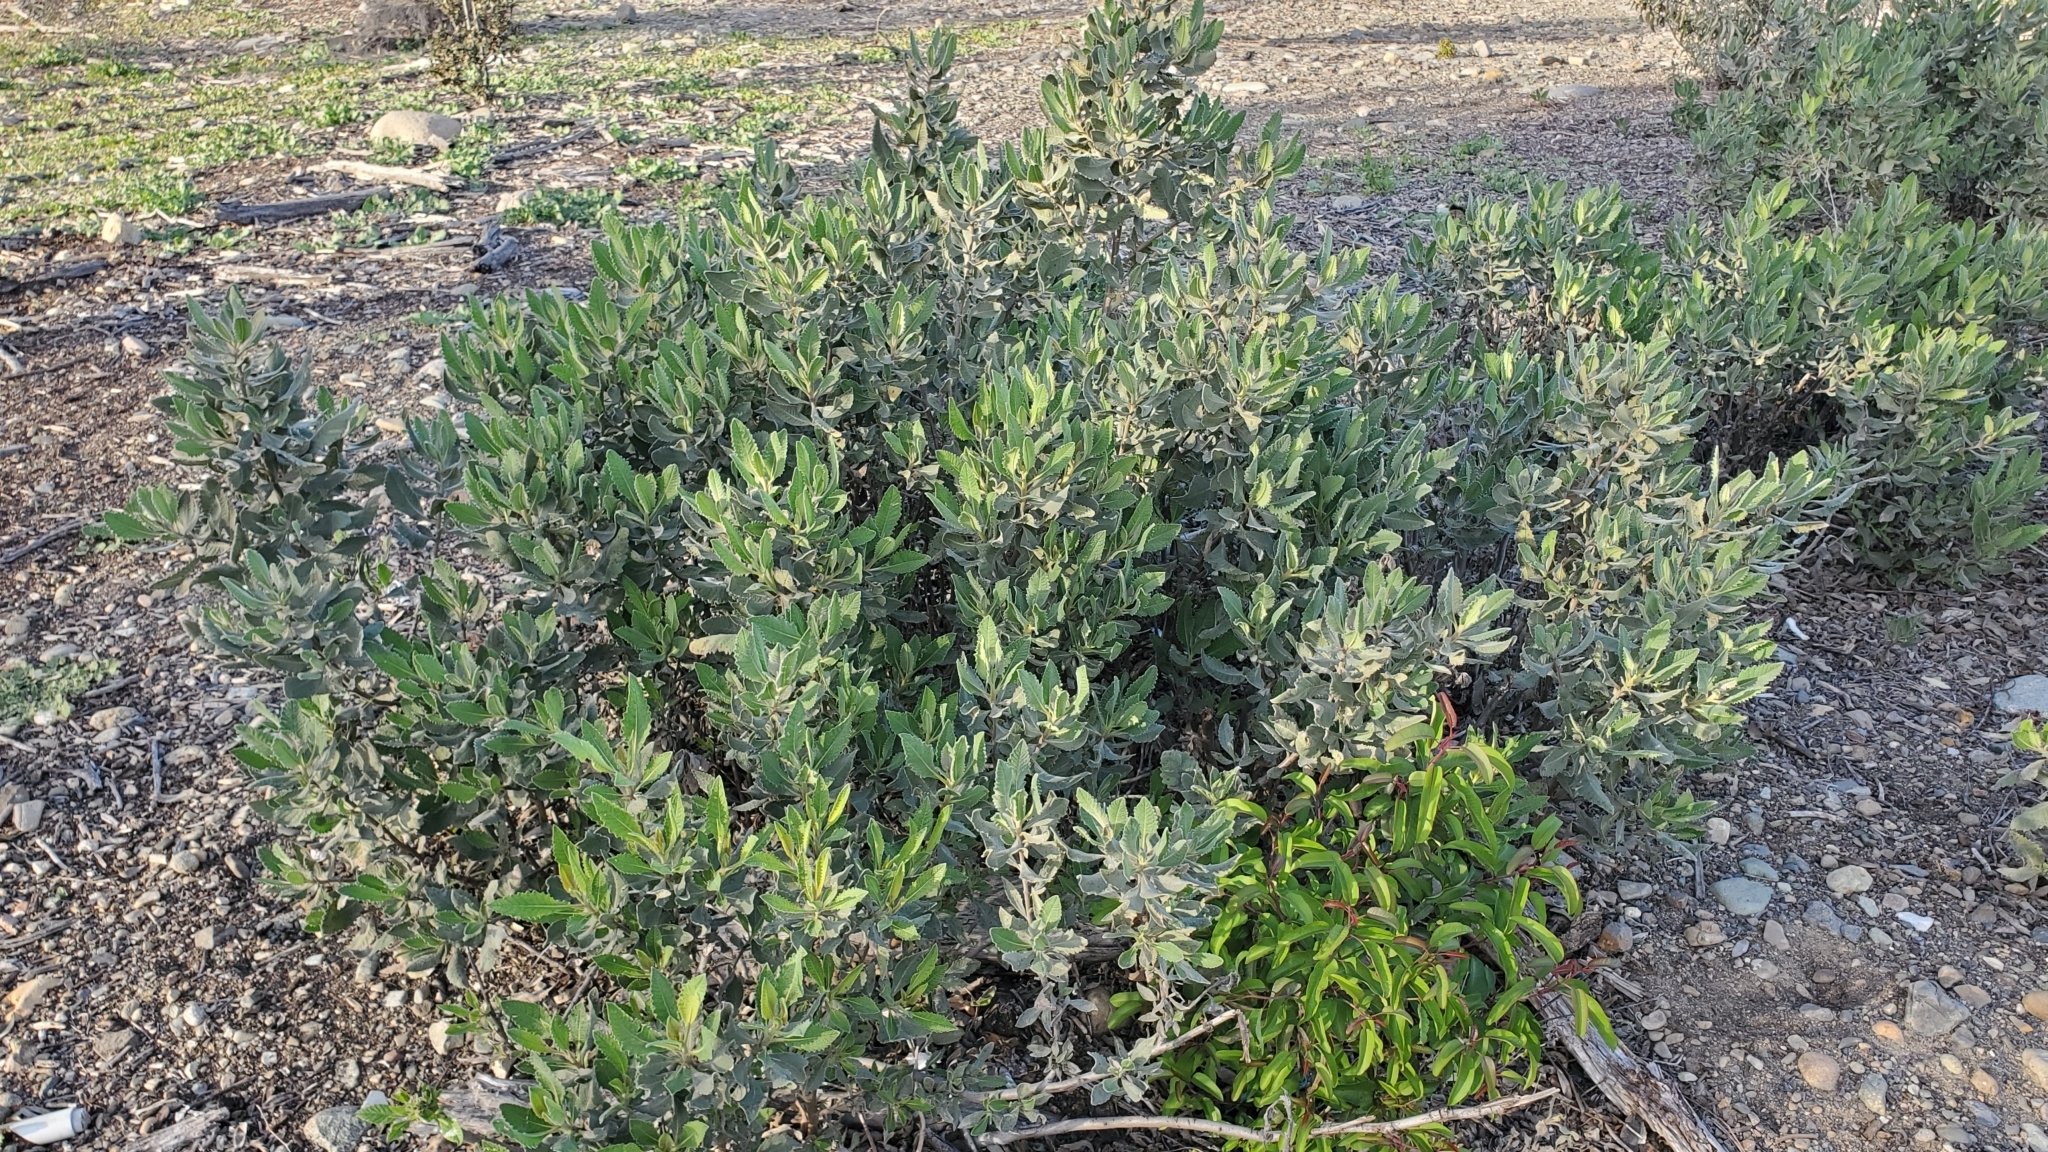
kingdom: Plantae
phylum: Tracheophyta
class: Magnoliopsida
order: Boraginales
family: Namaceae
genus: Eriodictyon
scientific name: Eriodictyon crassifolium
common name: Thick-leaf yerba-santa
